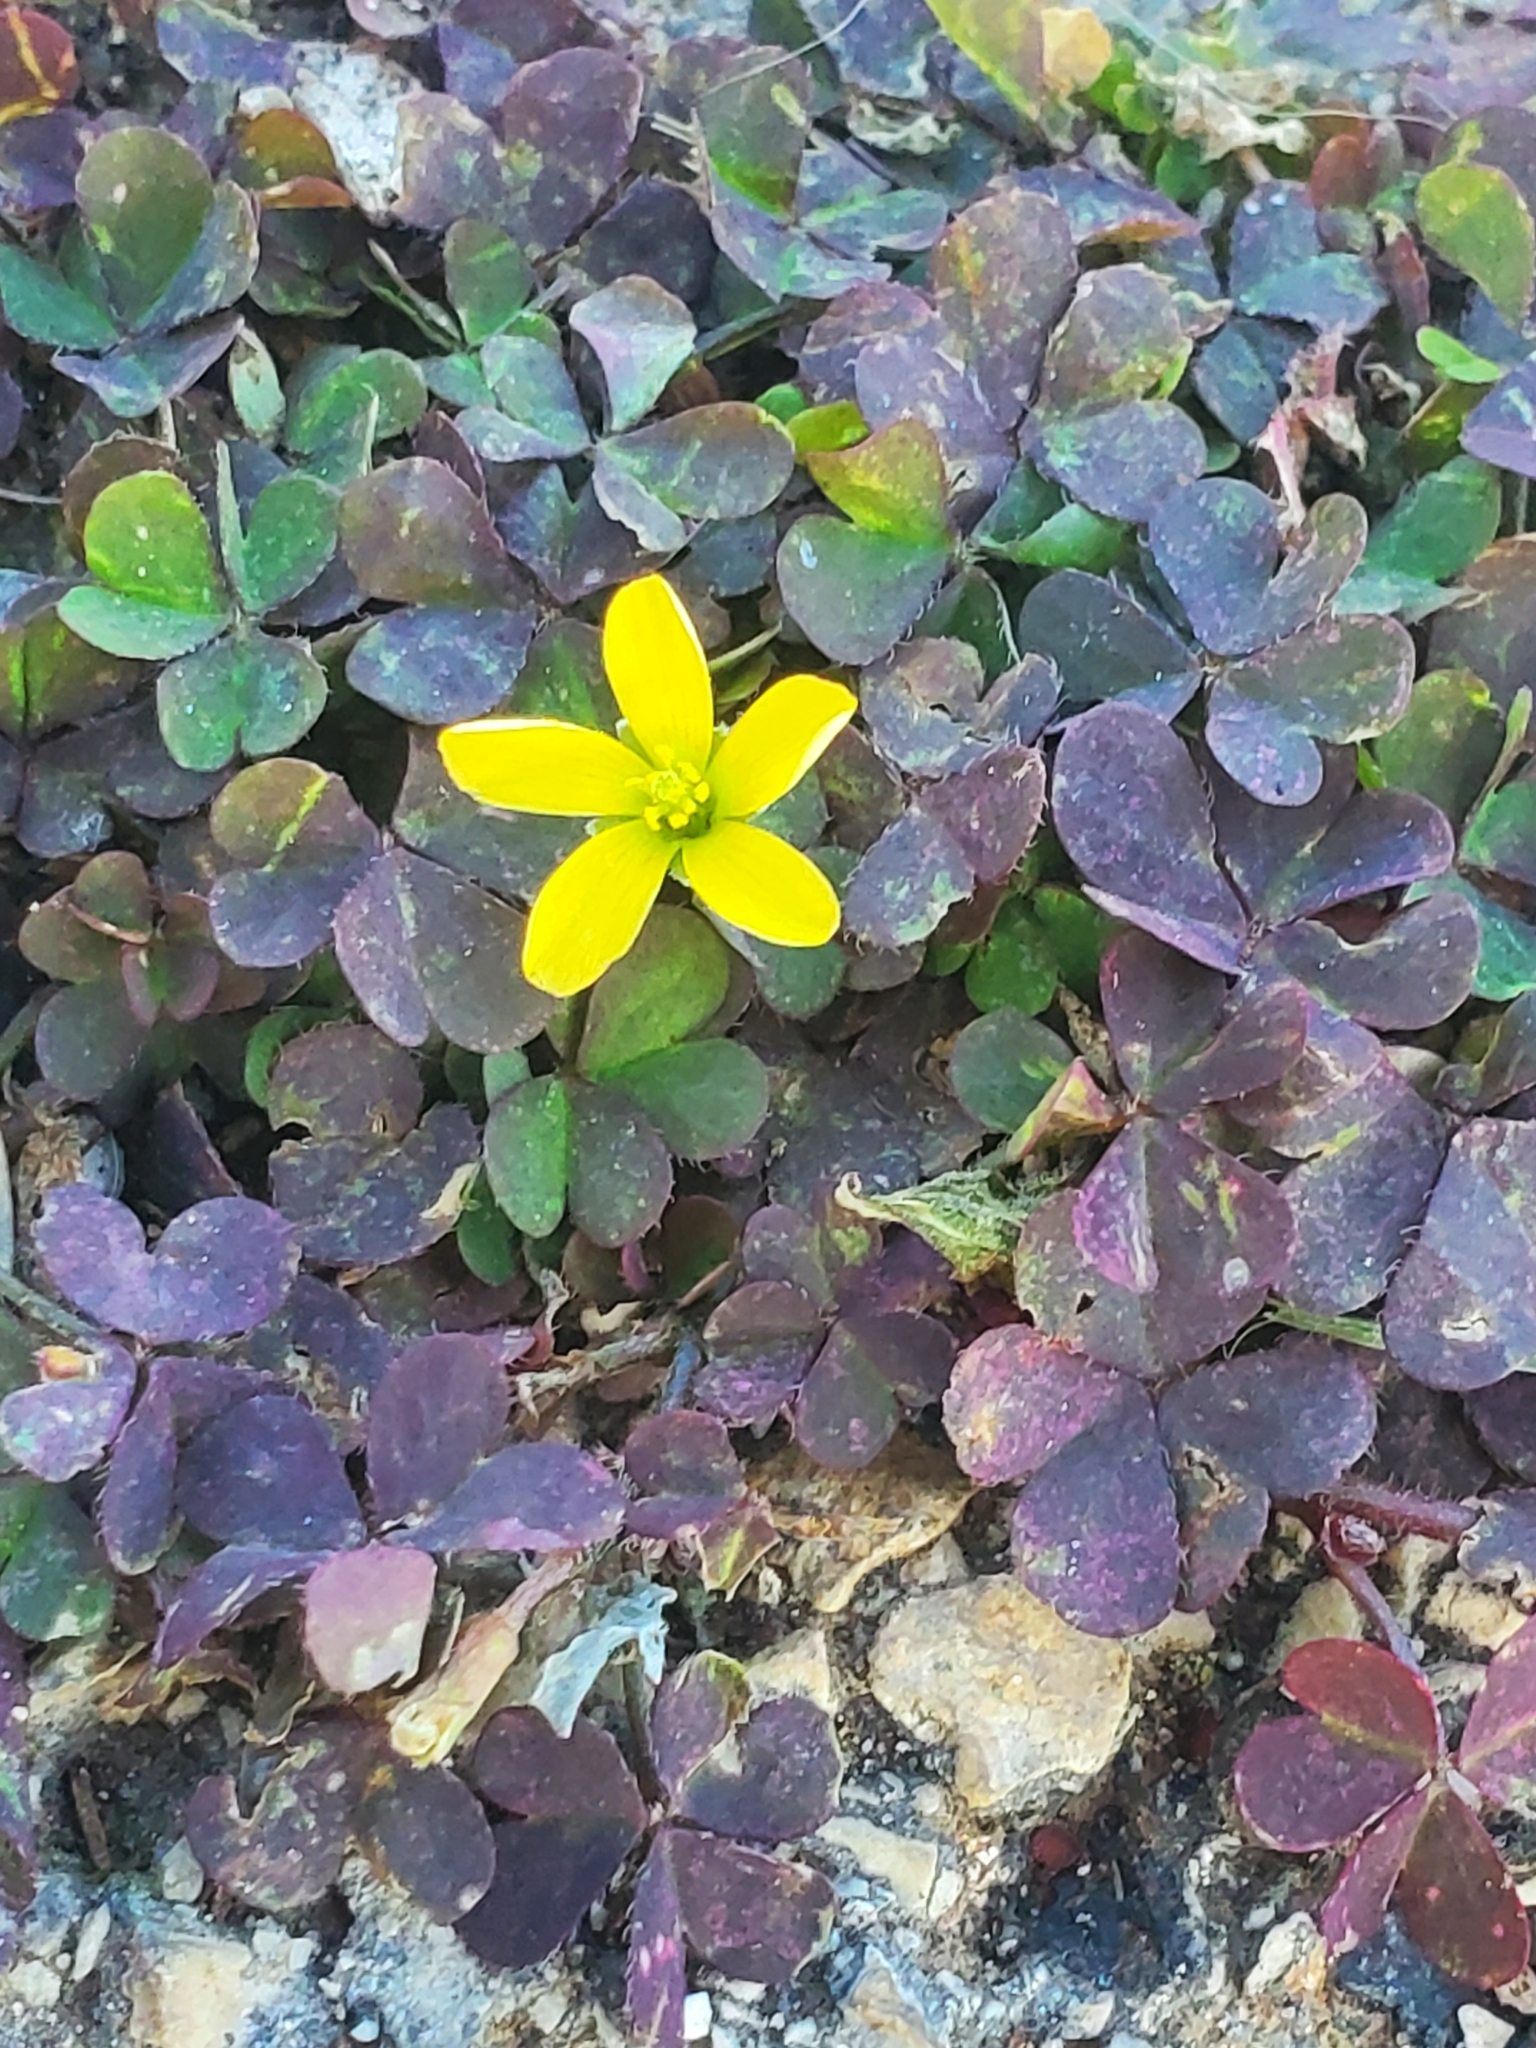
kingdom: Plantae
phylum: Tracheophyta
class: Magnoliopsida
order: Oxalidales
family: Oxalidaceae
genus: Oxalis
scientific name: Oxalis corniculata
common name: Procumbent yellow-sorrel
